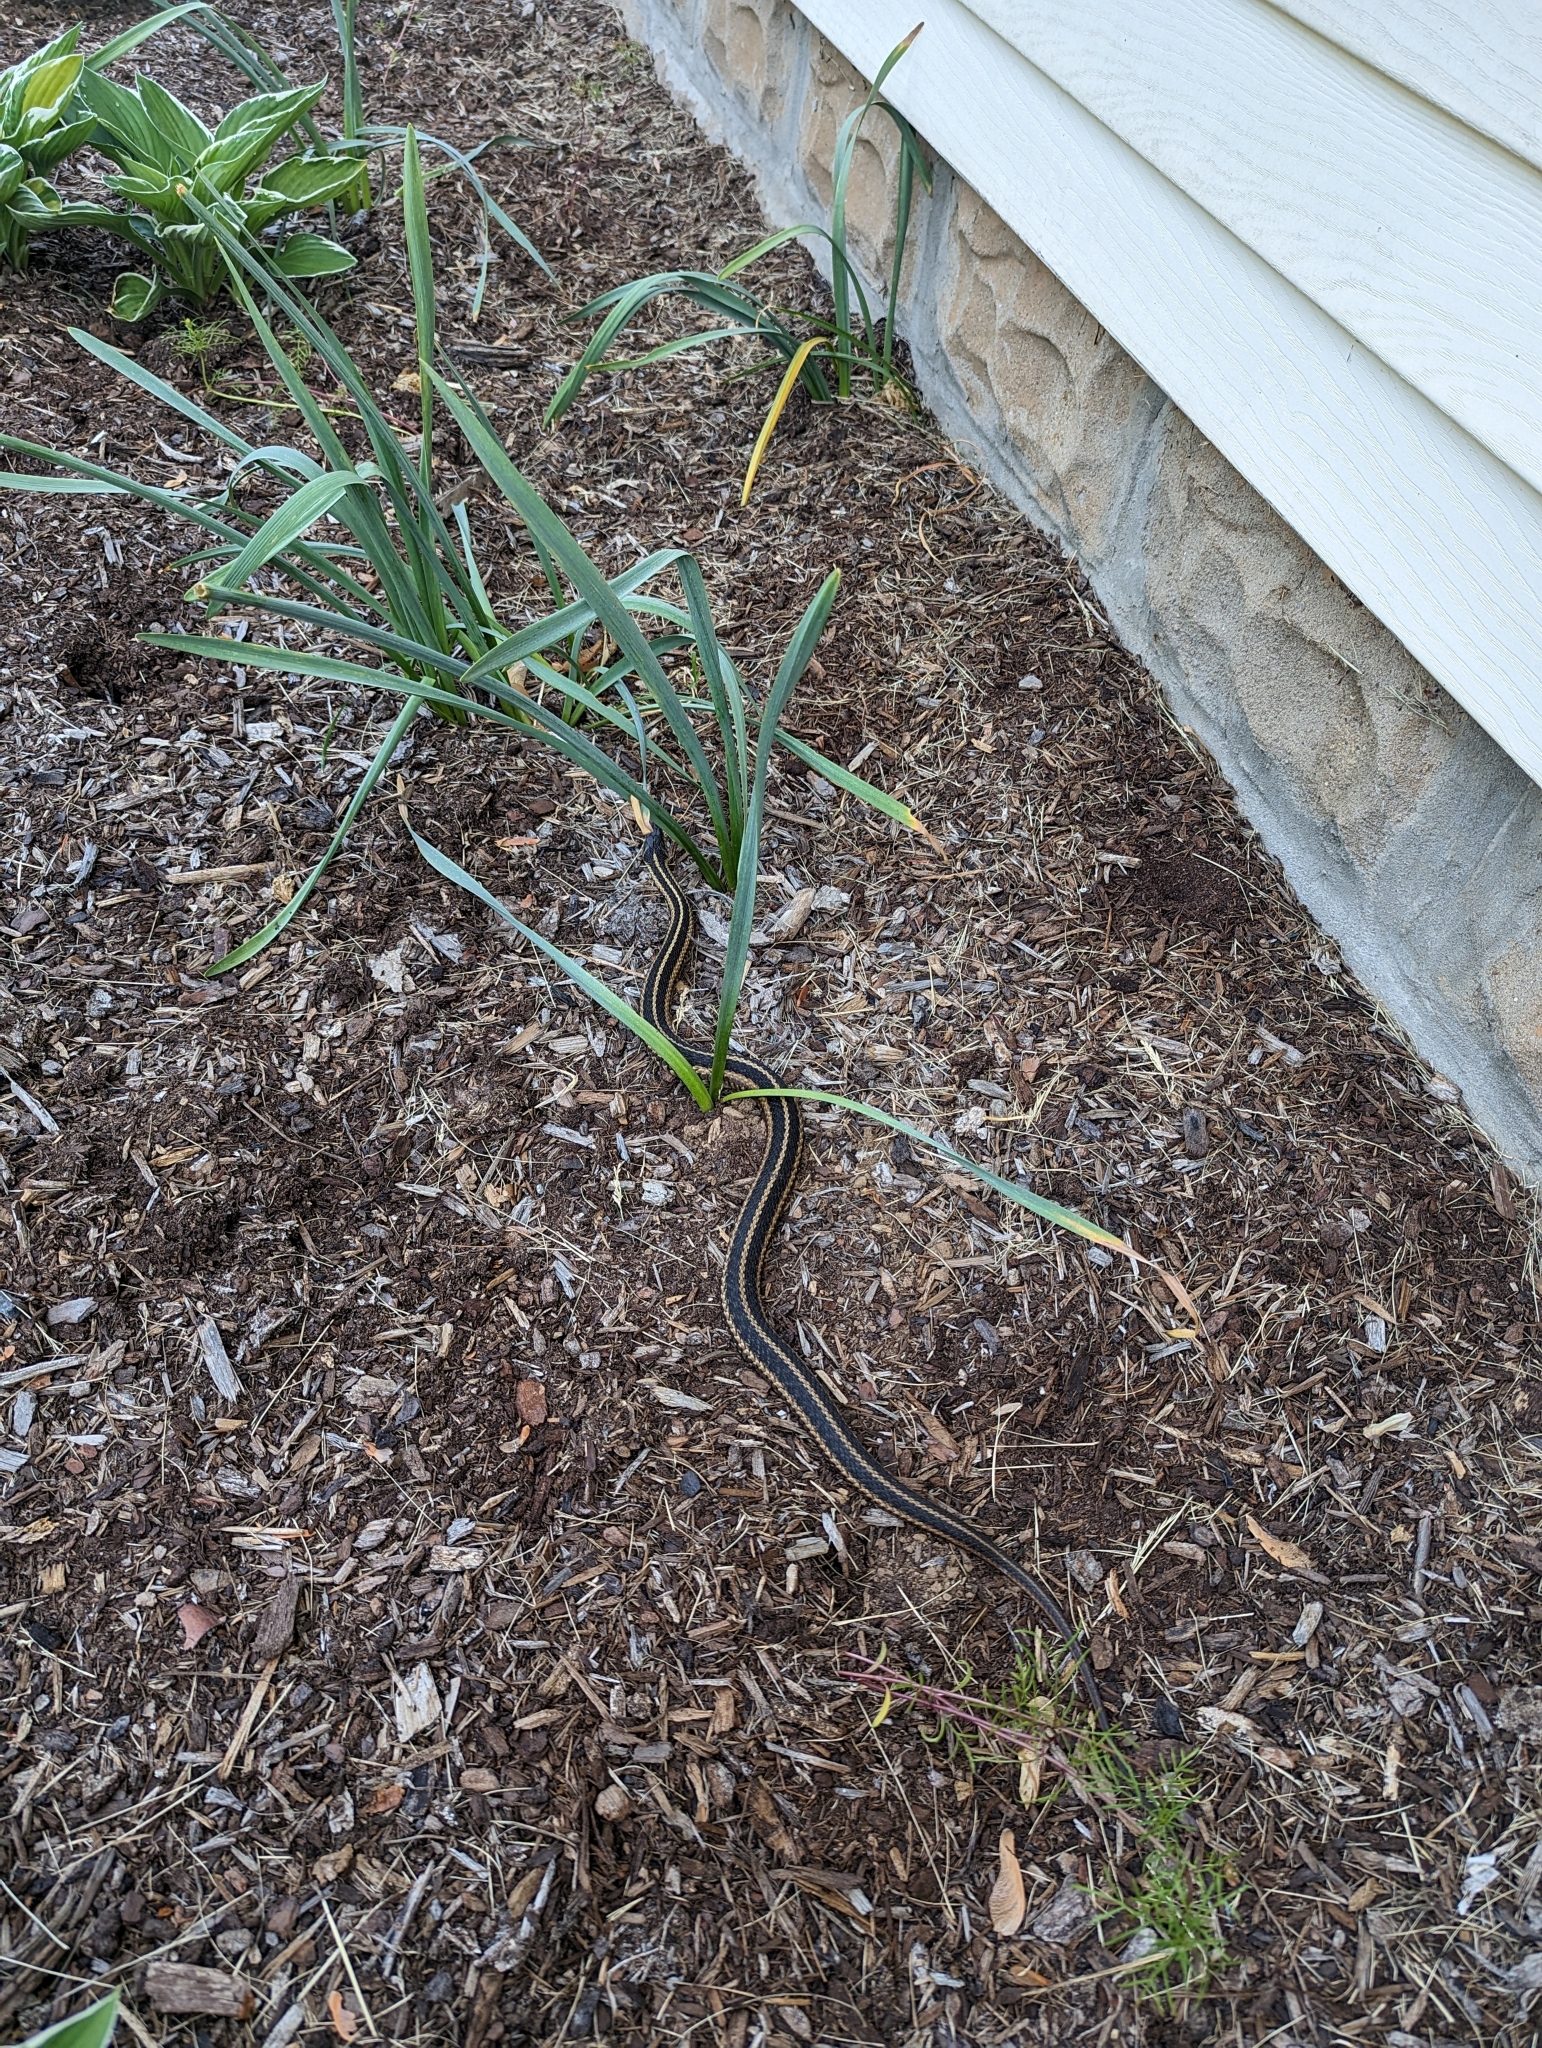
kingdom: Animalia
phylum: Chordata
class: Squamata
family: Colubridae
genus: Thamnophis
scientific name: Thamnophis sirtalis
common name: Common garter snake
